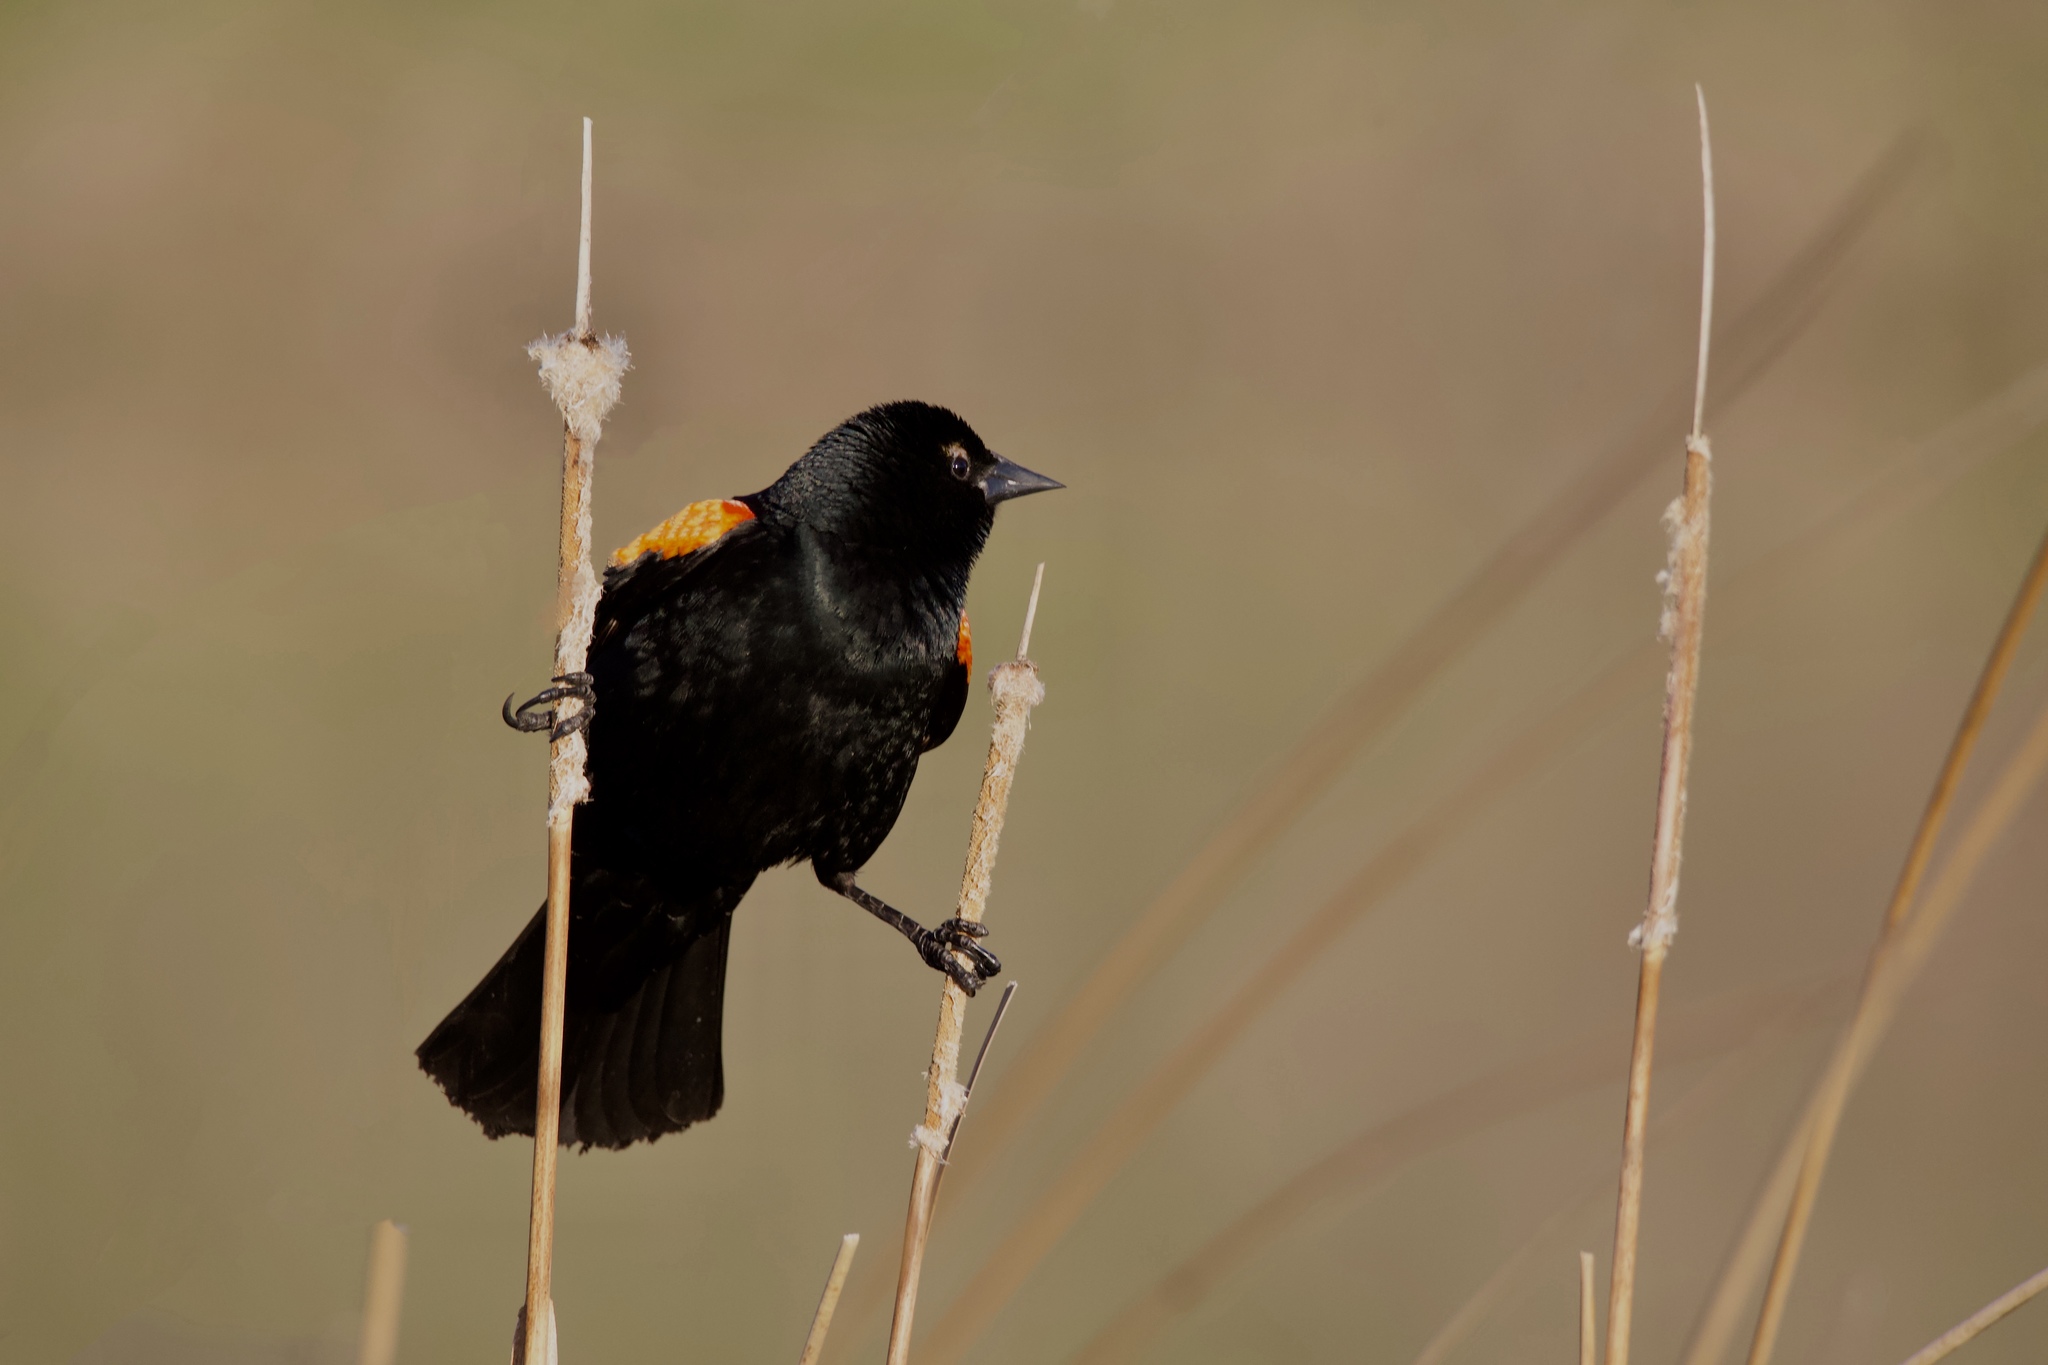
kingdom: Animalia
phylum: Chordata
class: Aves
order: Passeriformes
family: Icteridae
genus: Agelaius
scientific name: Agelaius phoeniceus
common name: Red-winged blackbird
